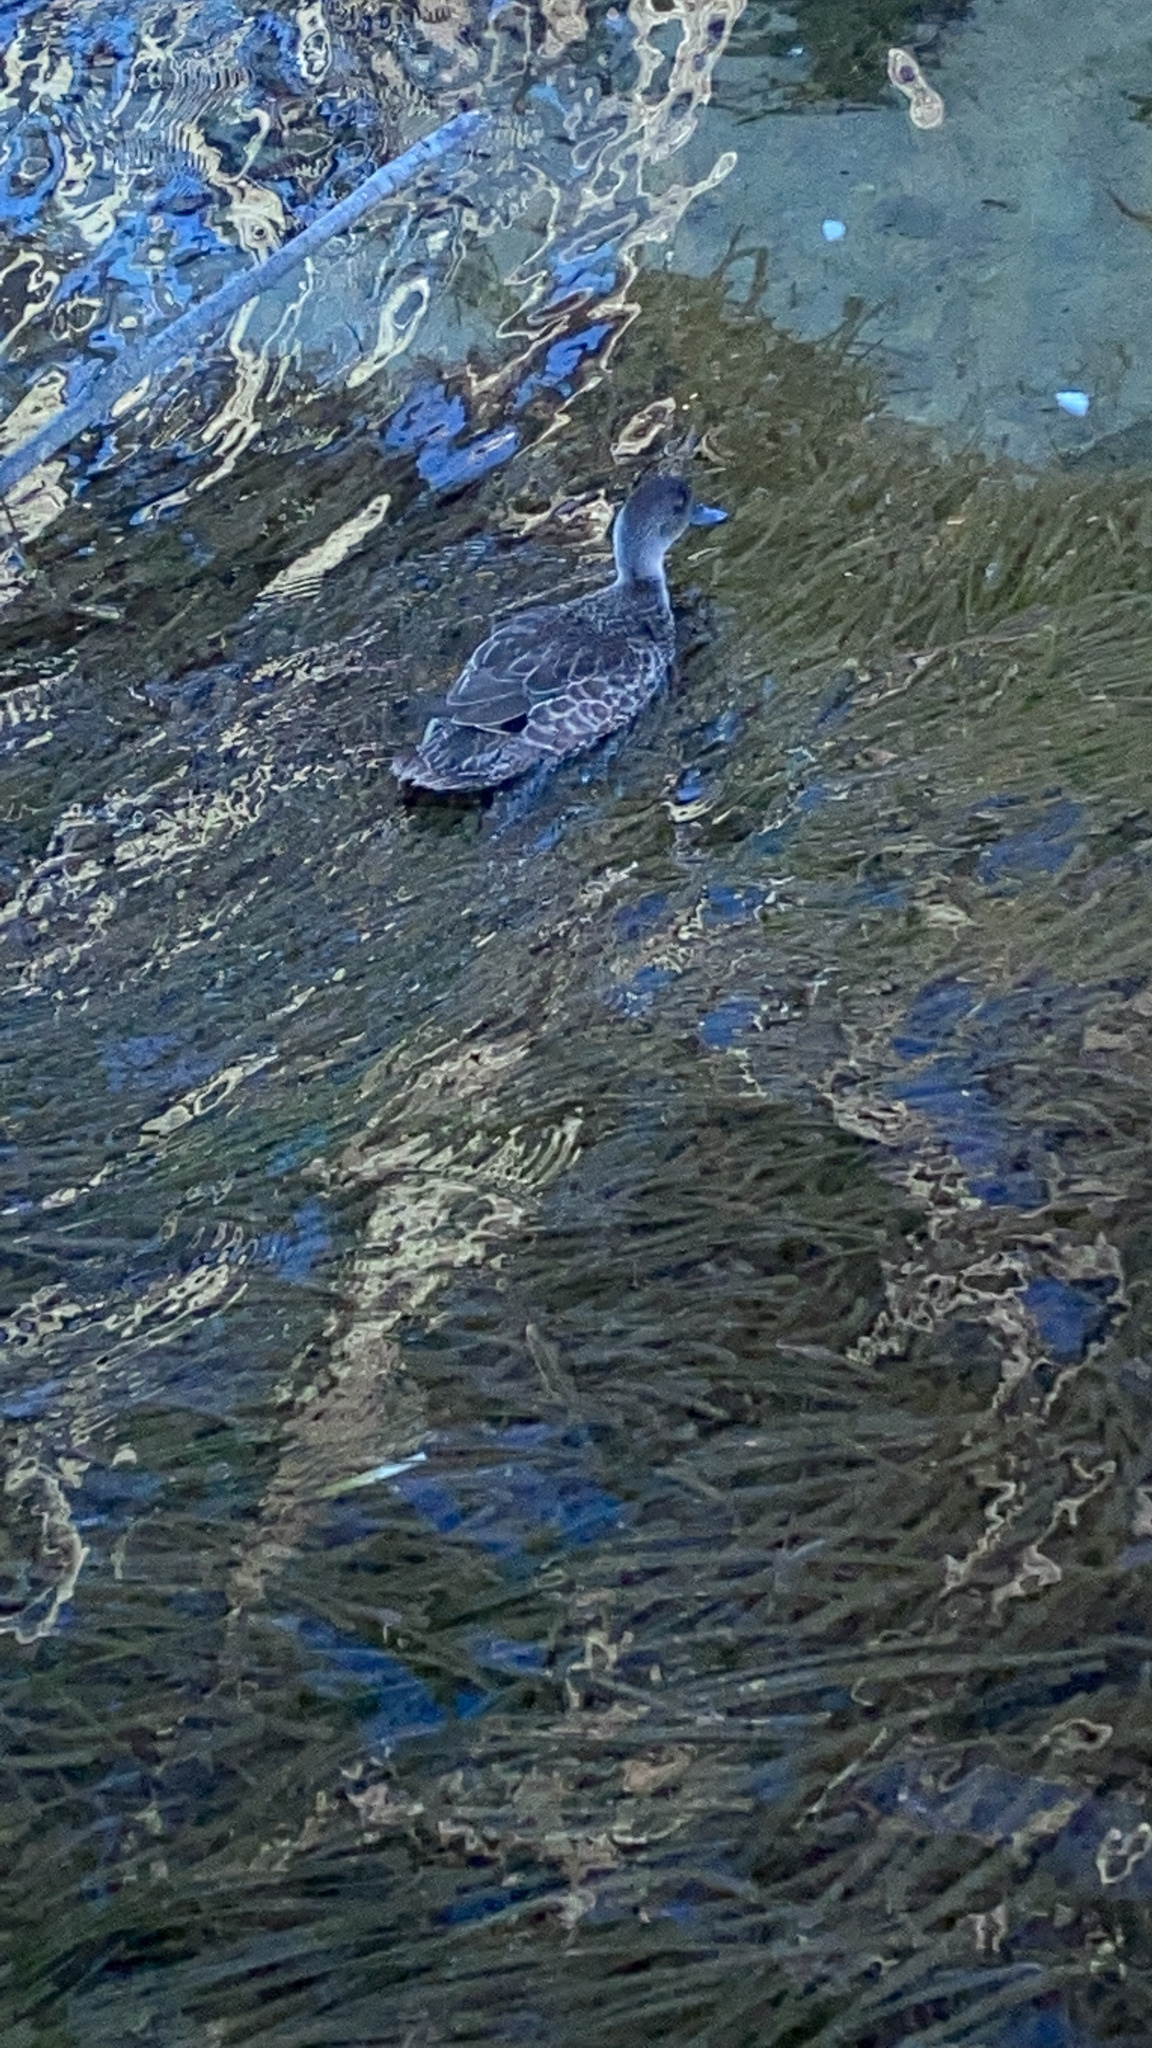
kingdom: Animalia
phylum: Chordata
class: Aves
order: Anseriformes
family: Anatidae
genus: Anas
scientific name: Anas gracilis
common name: Grey teal
